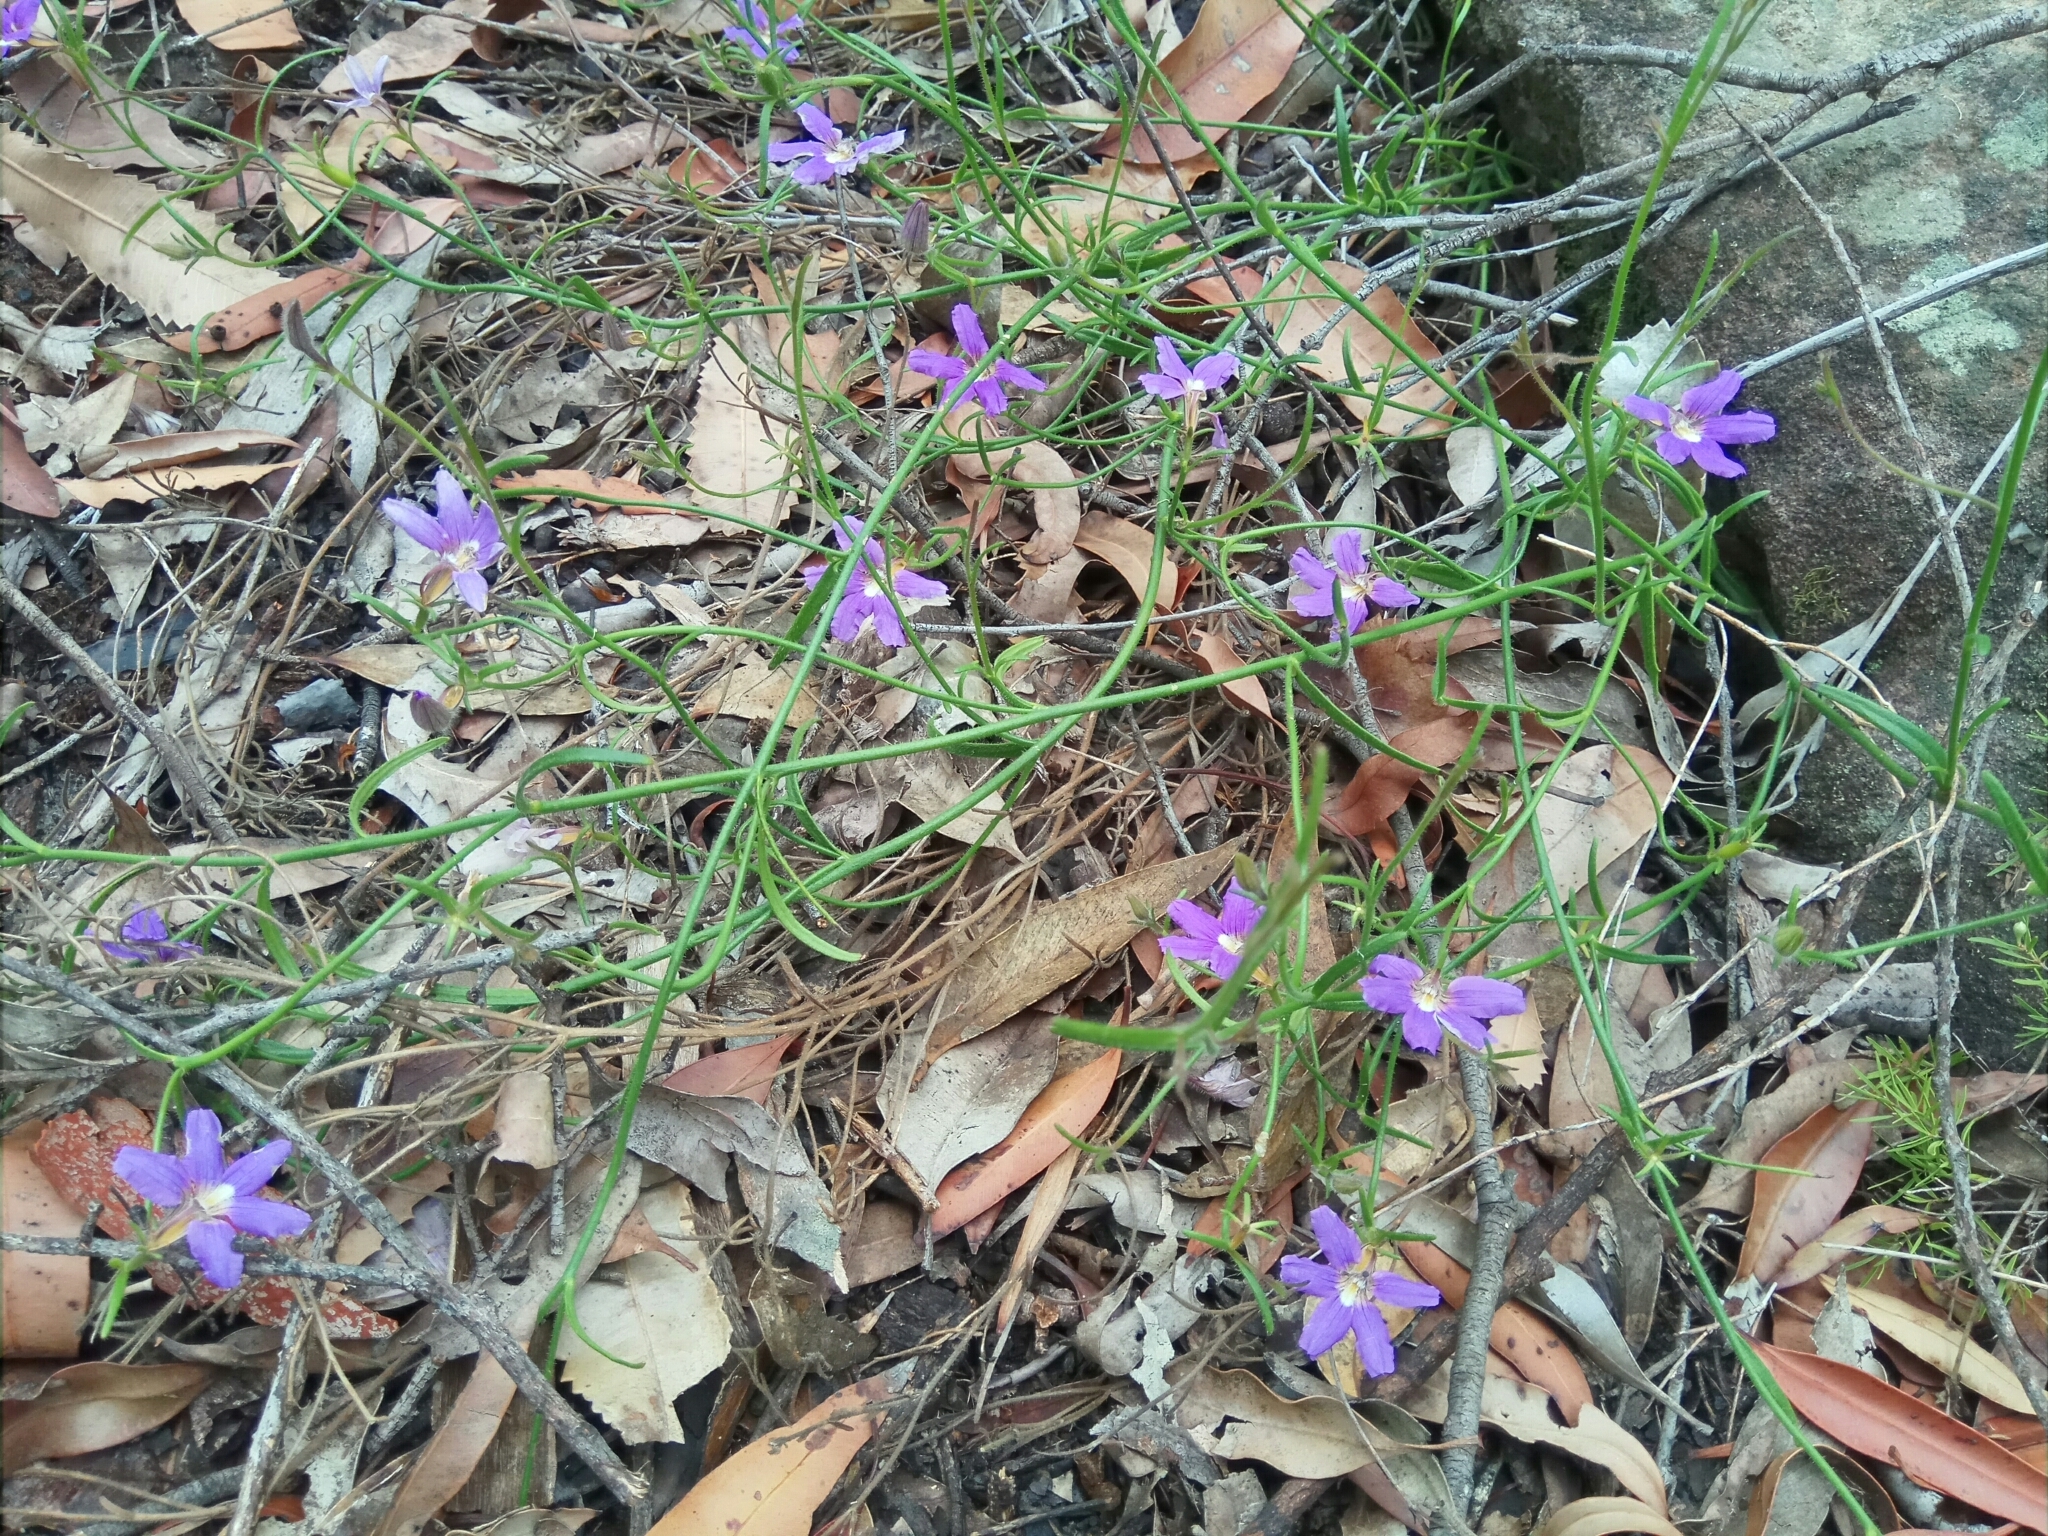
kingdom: Plantae
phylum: Tracheophyta
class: Magnoliopsida
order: Asterales
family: Goodeniaceae
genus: Scaevola
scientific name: Scaevola ramosissima
